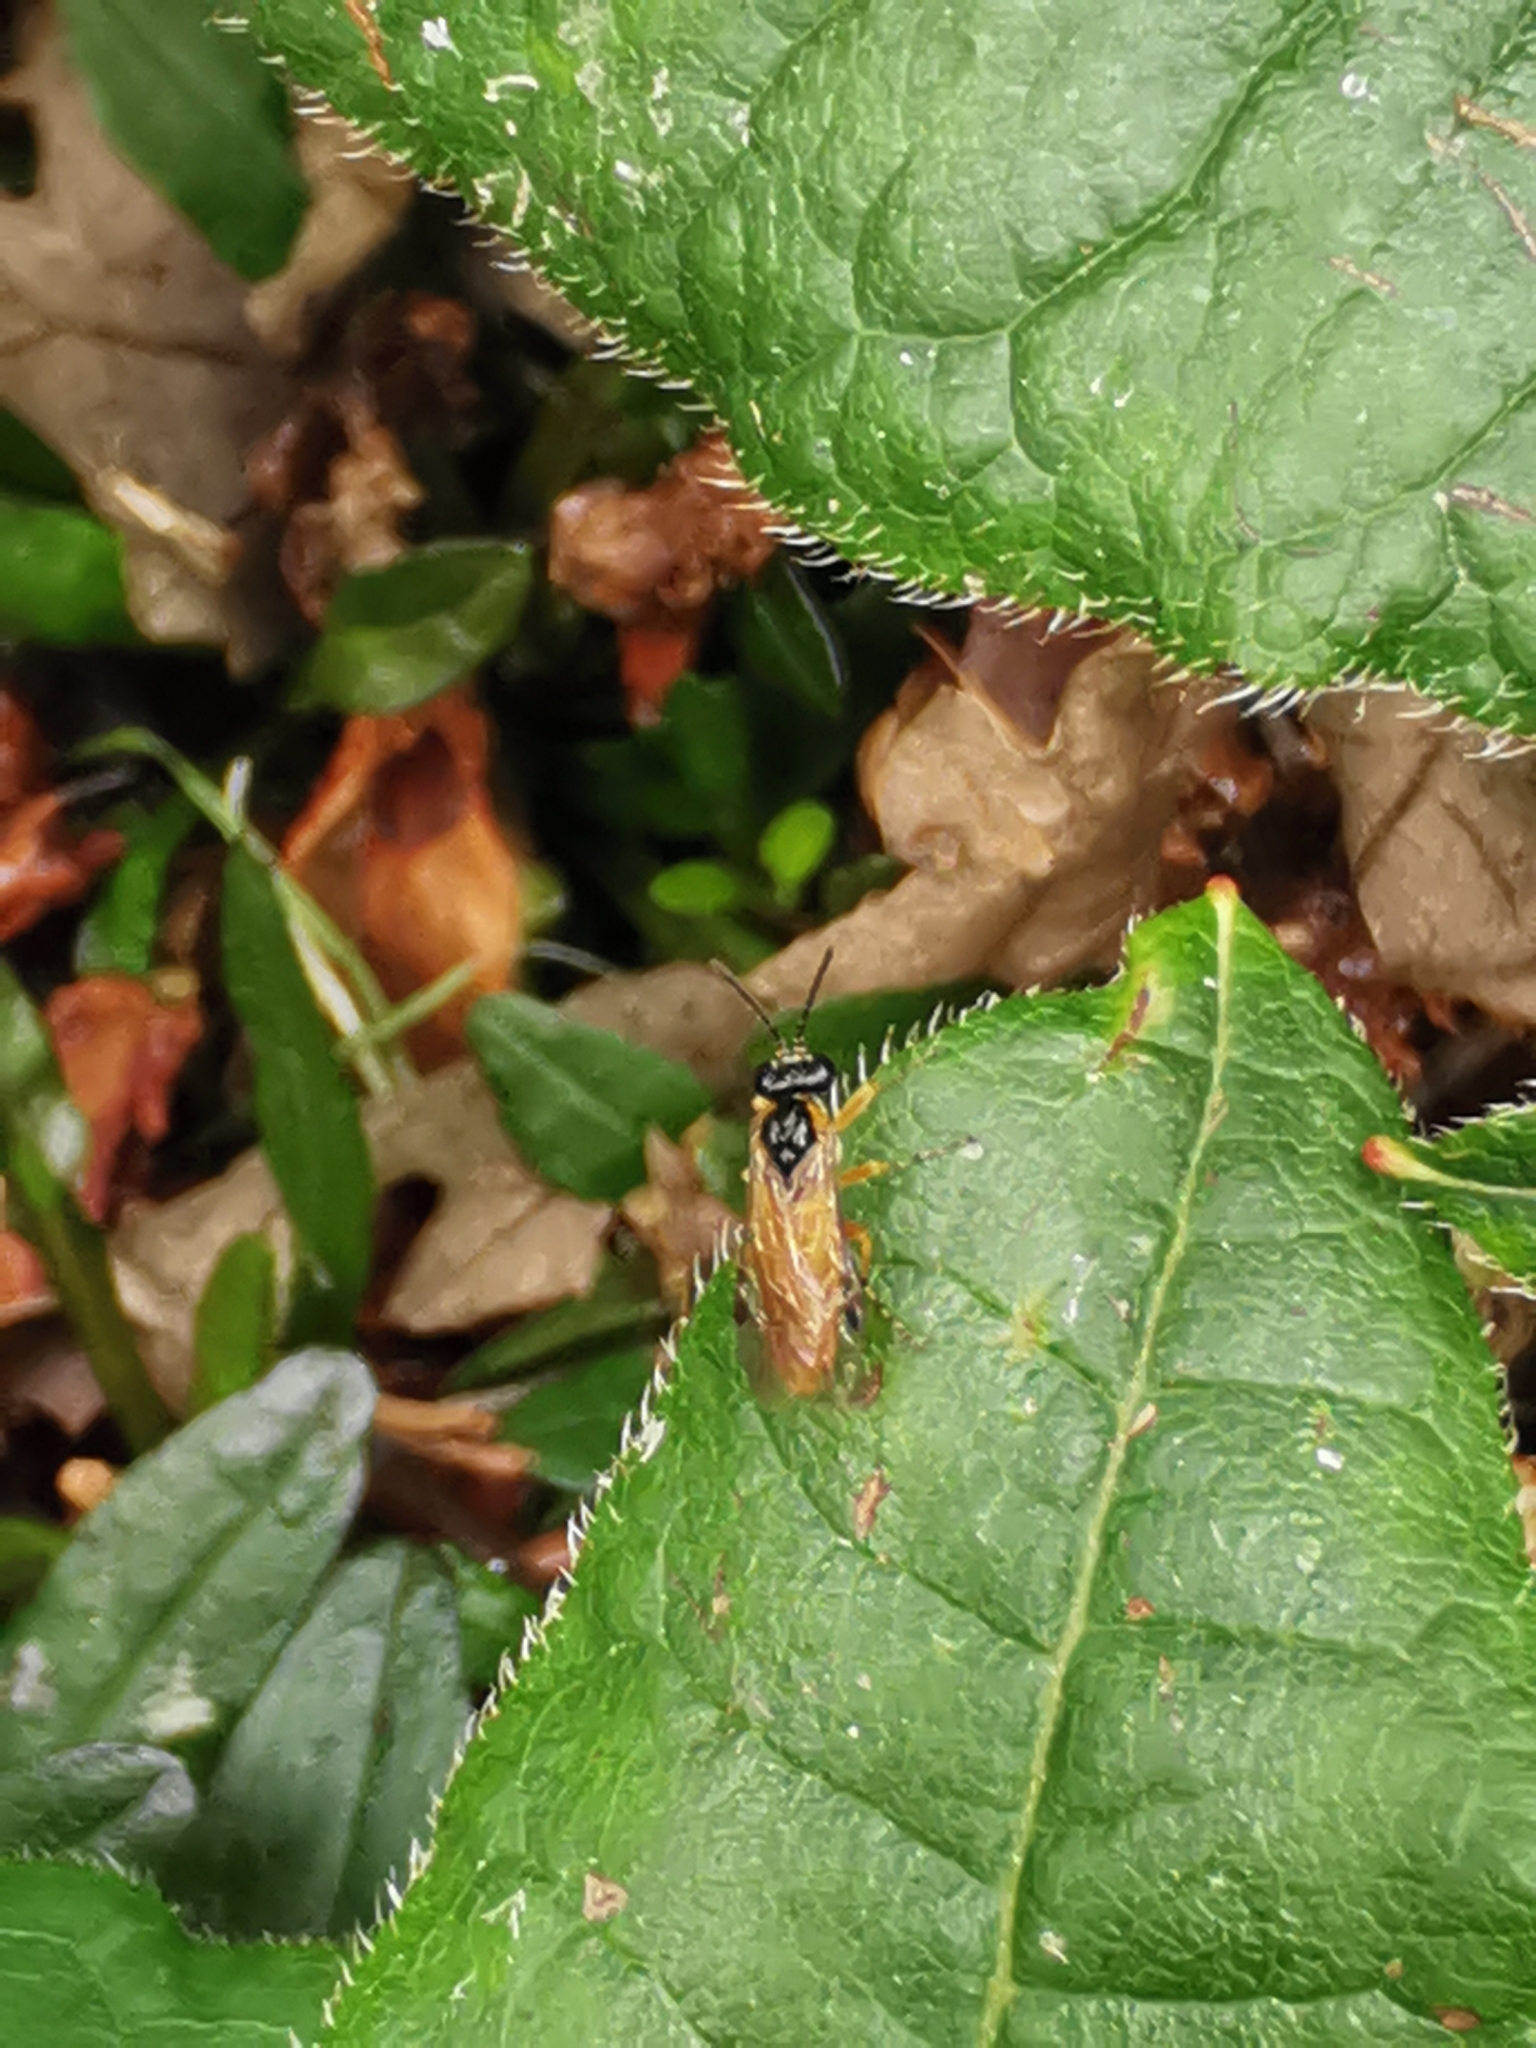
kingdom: Animalia
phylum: Arthropoda
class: Insecta
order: Hymenoptera
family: Tenthredinidae
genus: Athalia
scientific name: Athalia rosae
